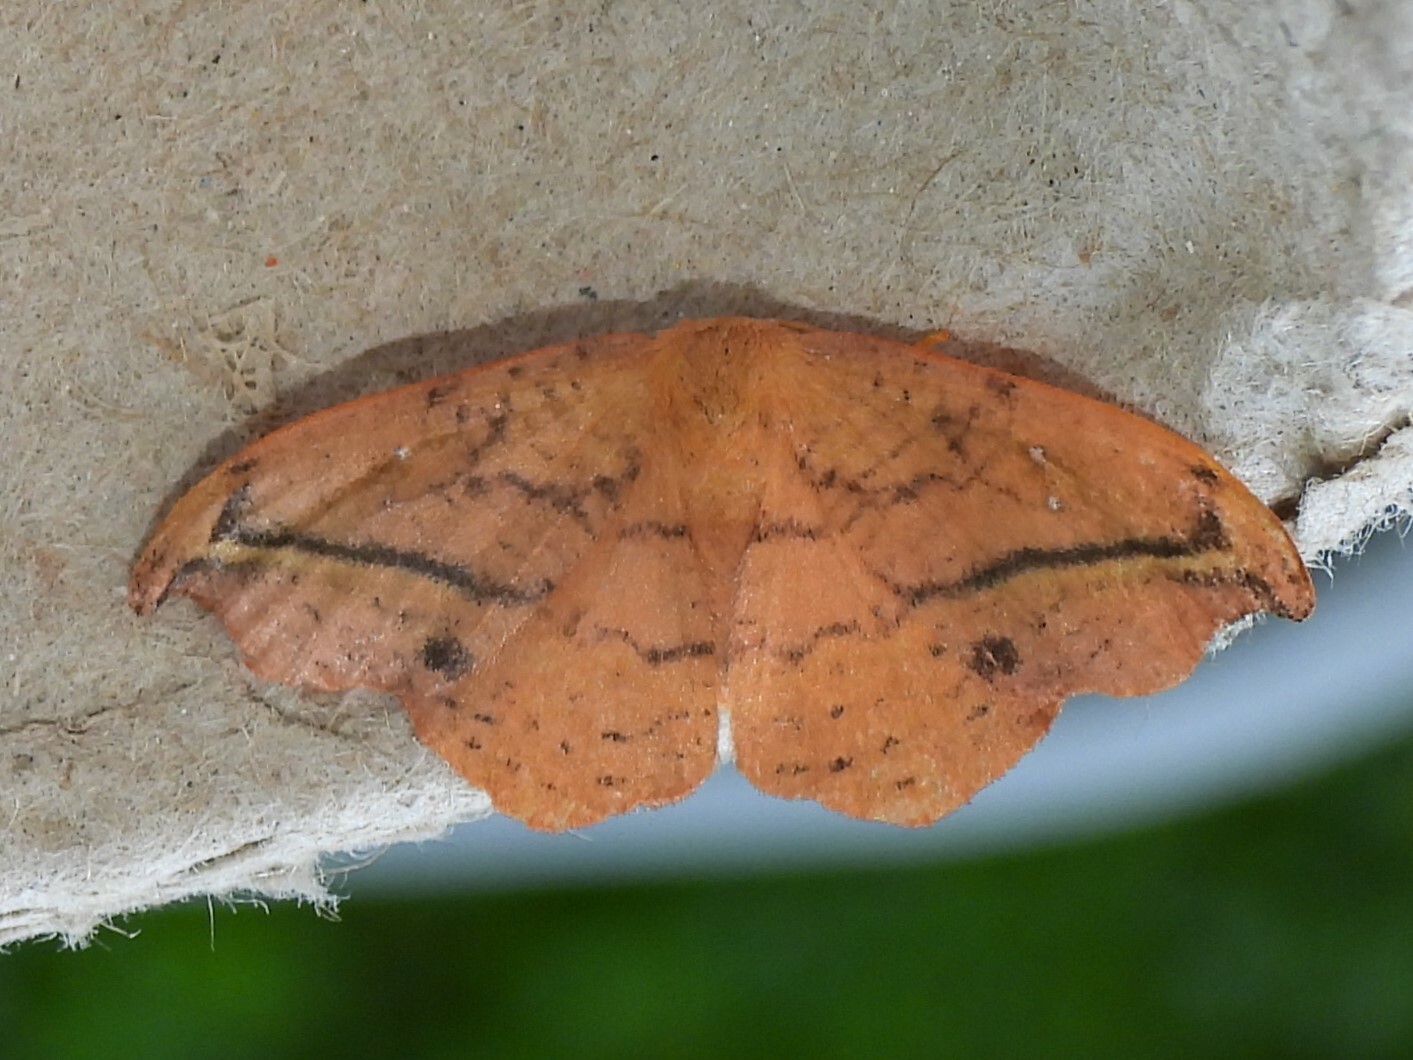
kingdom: Animalia
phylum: Arthropoda
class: Insecta
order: Lepidoptera
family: Drepanidae
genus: Oreta
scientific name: Oreta rosea
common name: Rose hooktip
